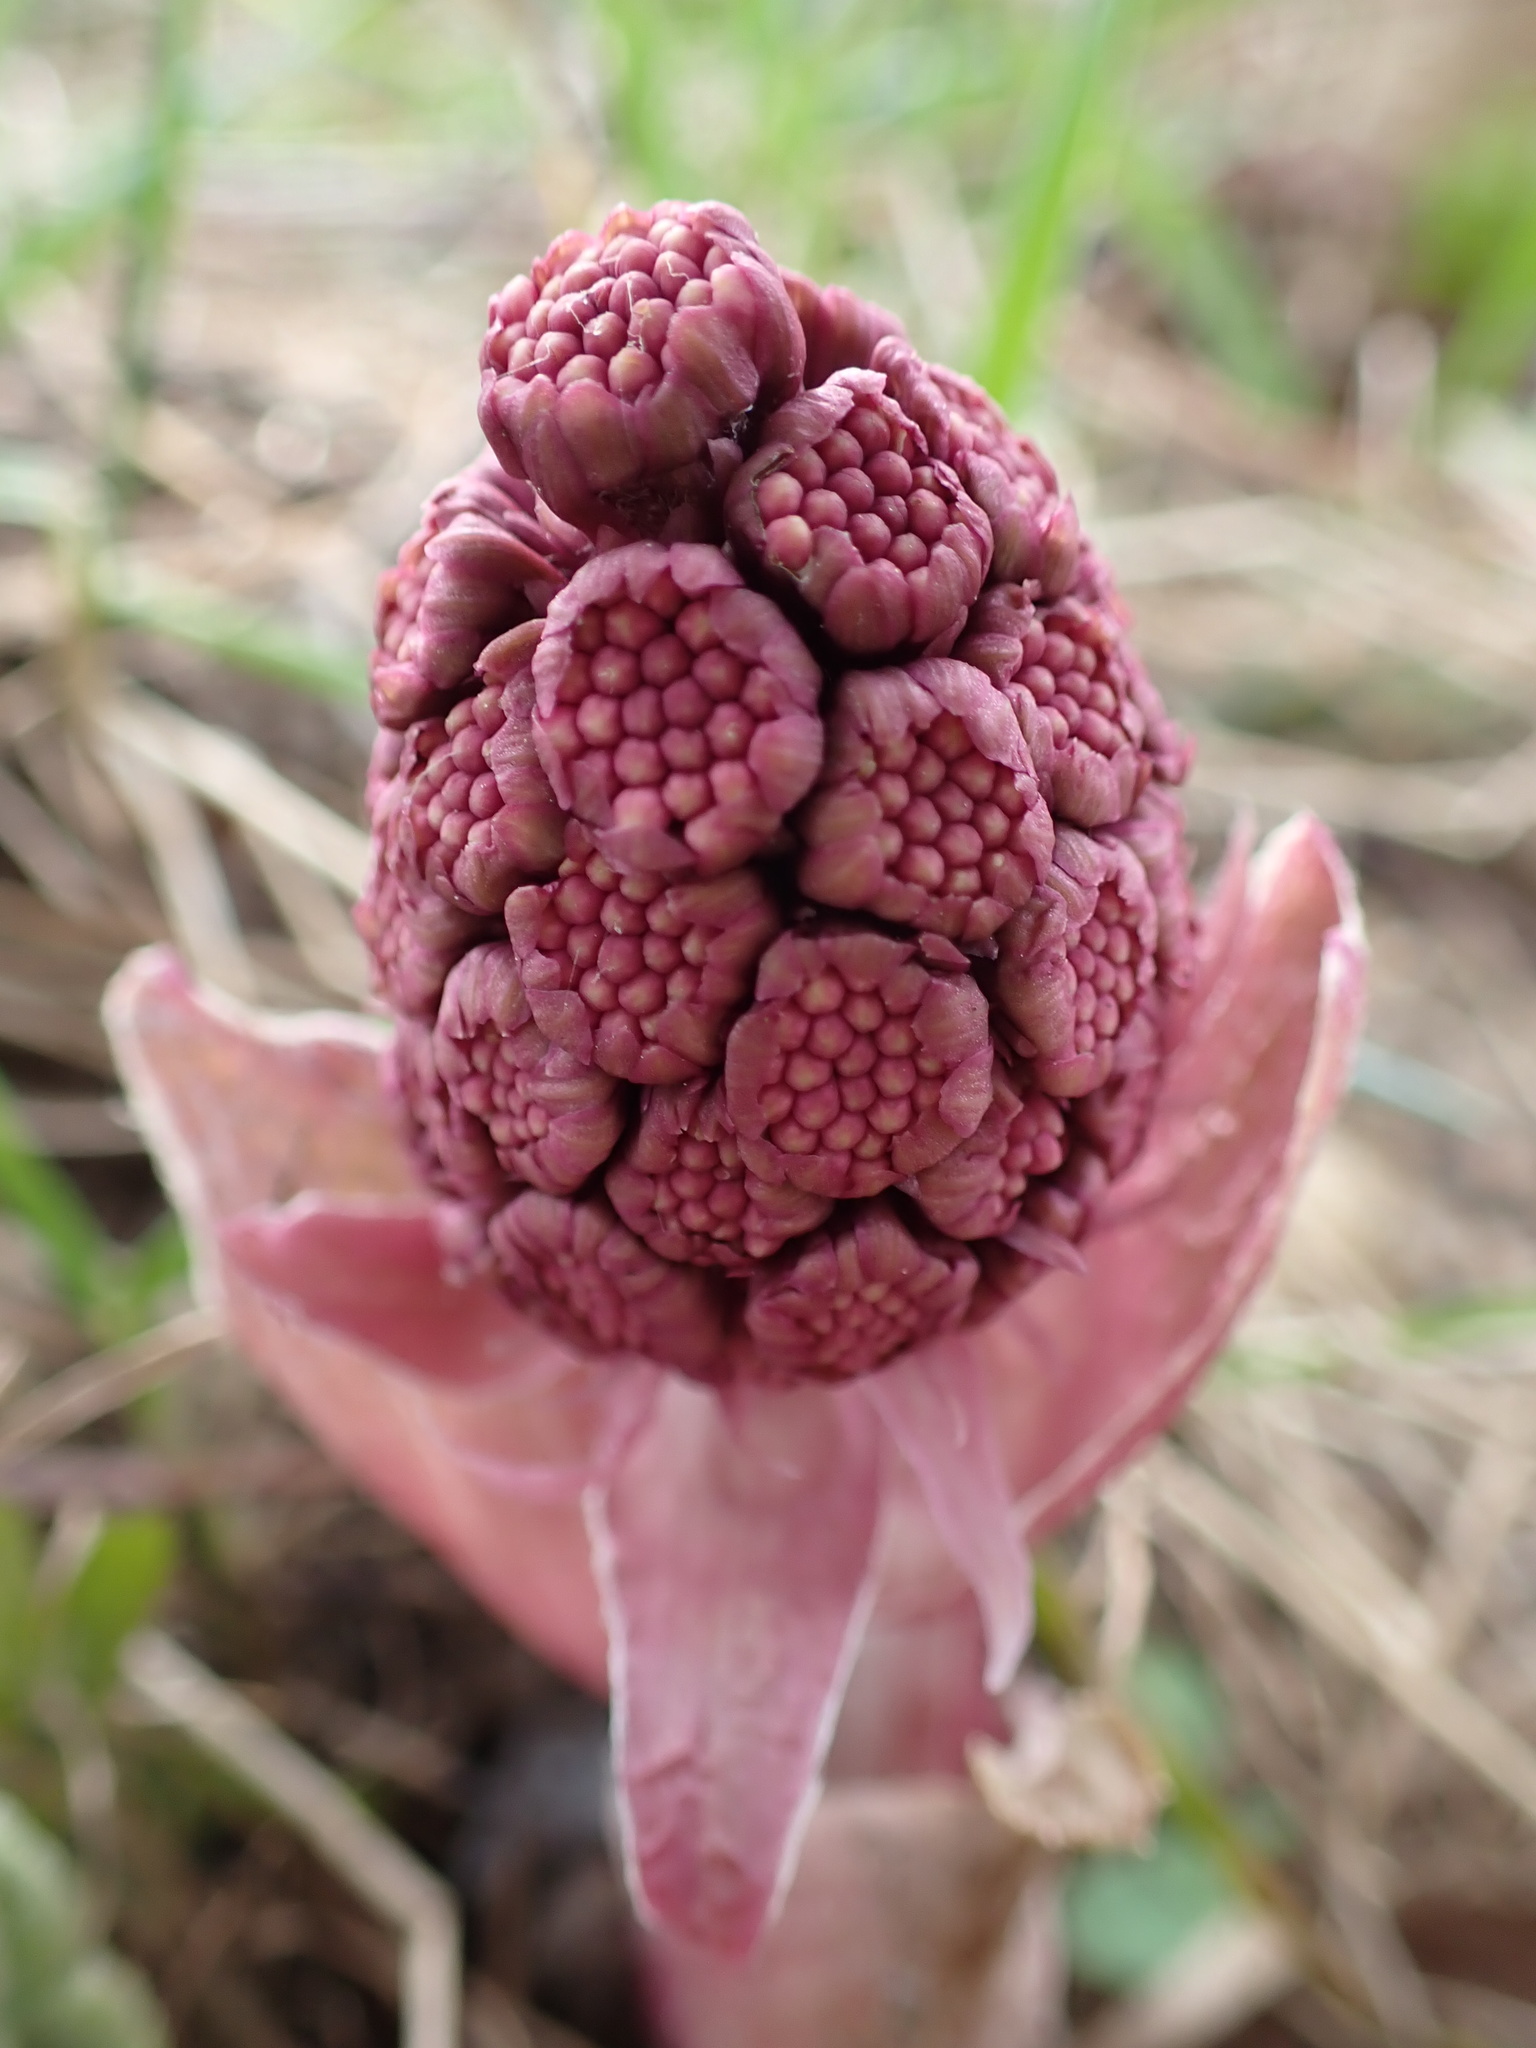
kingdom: Plantae
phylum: Tracheophyta
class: Magnoliopsida
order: Asterales
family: Asteraceae
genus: Petasites
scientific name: Petasites hybridus
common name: Butterbur
